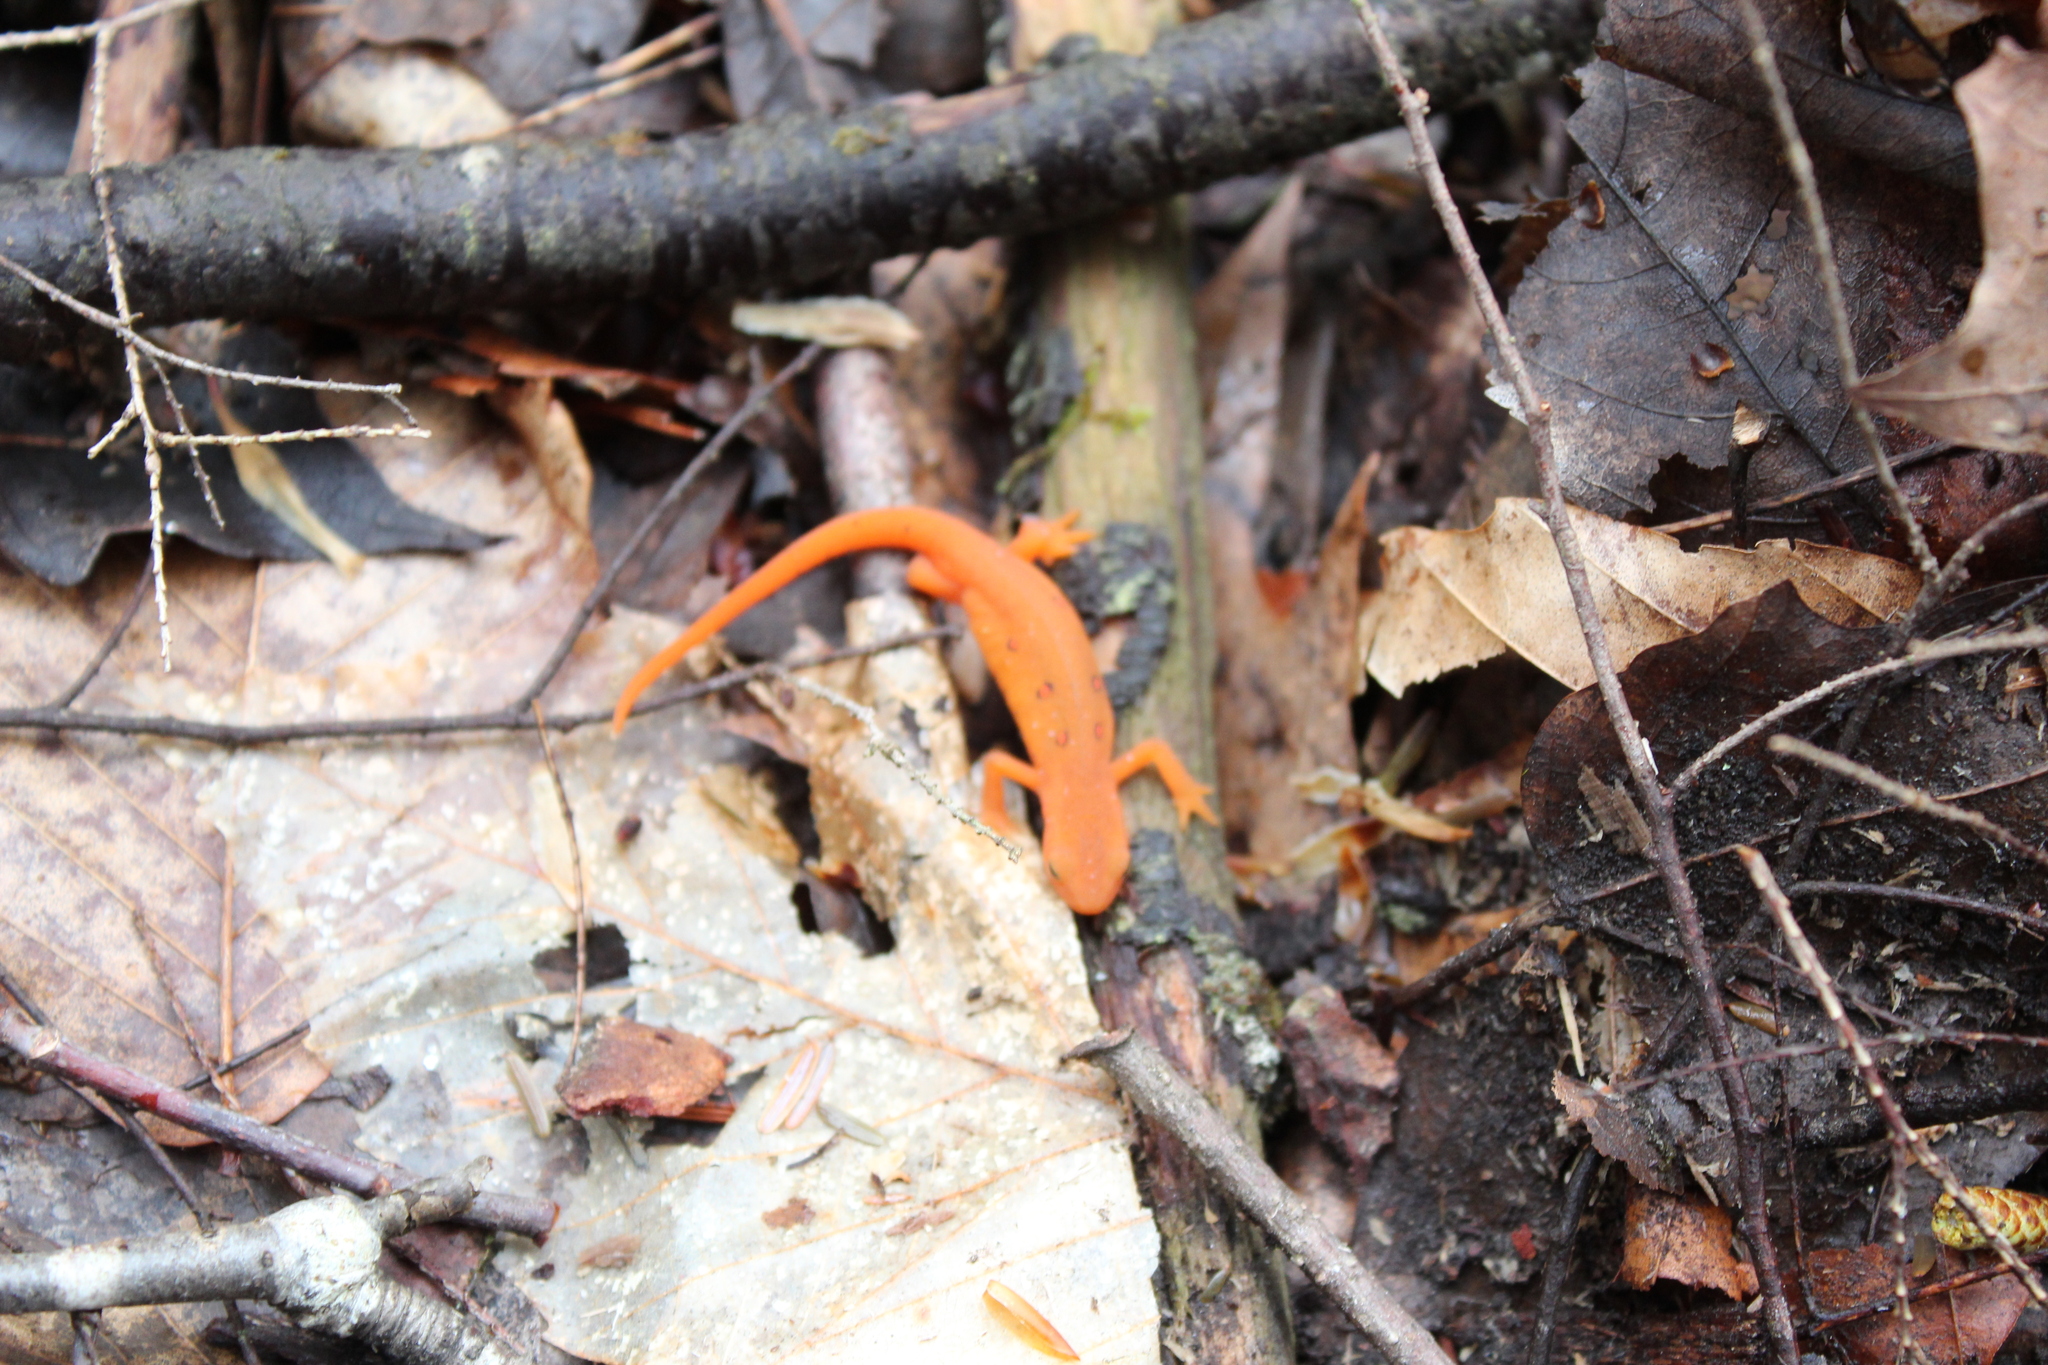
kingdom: Animalia
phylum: Chordata
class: Amphibia
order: Caudata
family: Salamandridae
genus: Notophthalmus
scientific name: Notophthalmus viridescens
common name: Eastern newt
